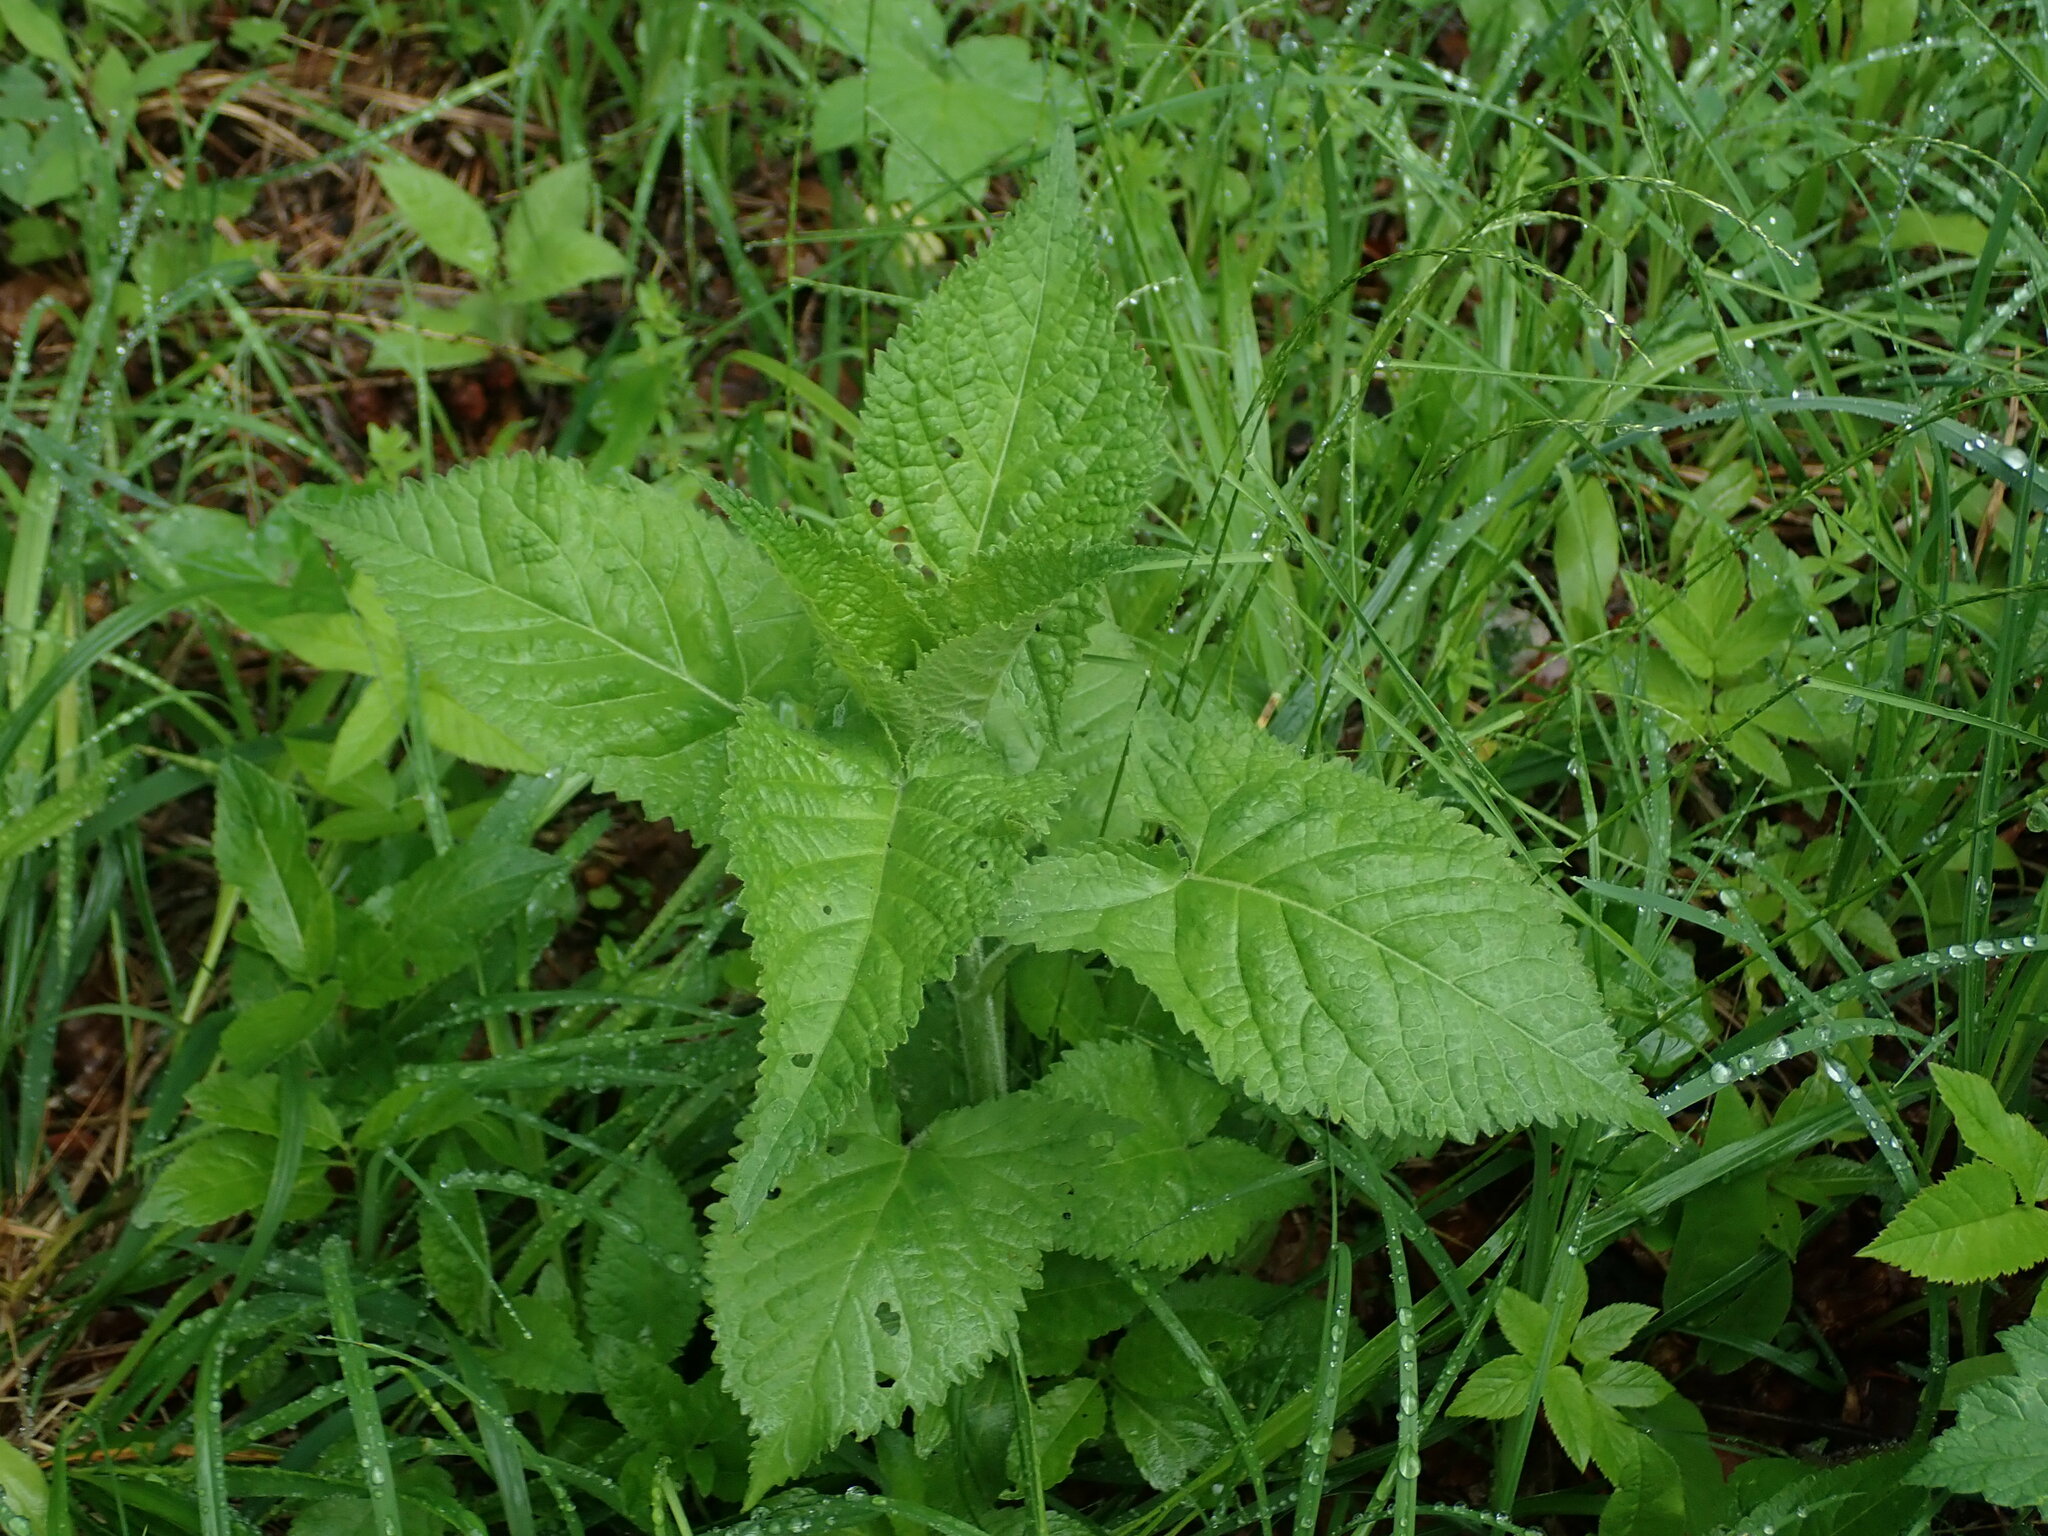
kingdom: Plantae
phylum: Tracheophyta
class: Magnoliopsida
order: Lamiales
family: Lamiaceae
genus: Salvia
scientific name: Salvia glutinosa
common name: Sticky clary
